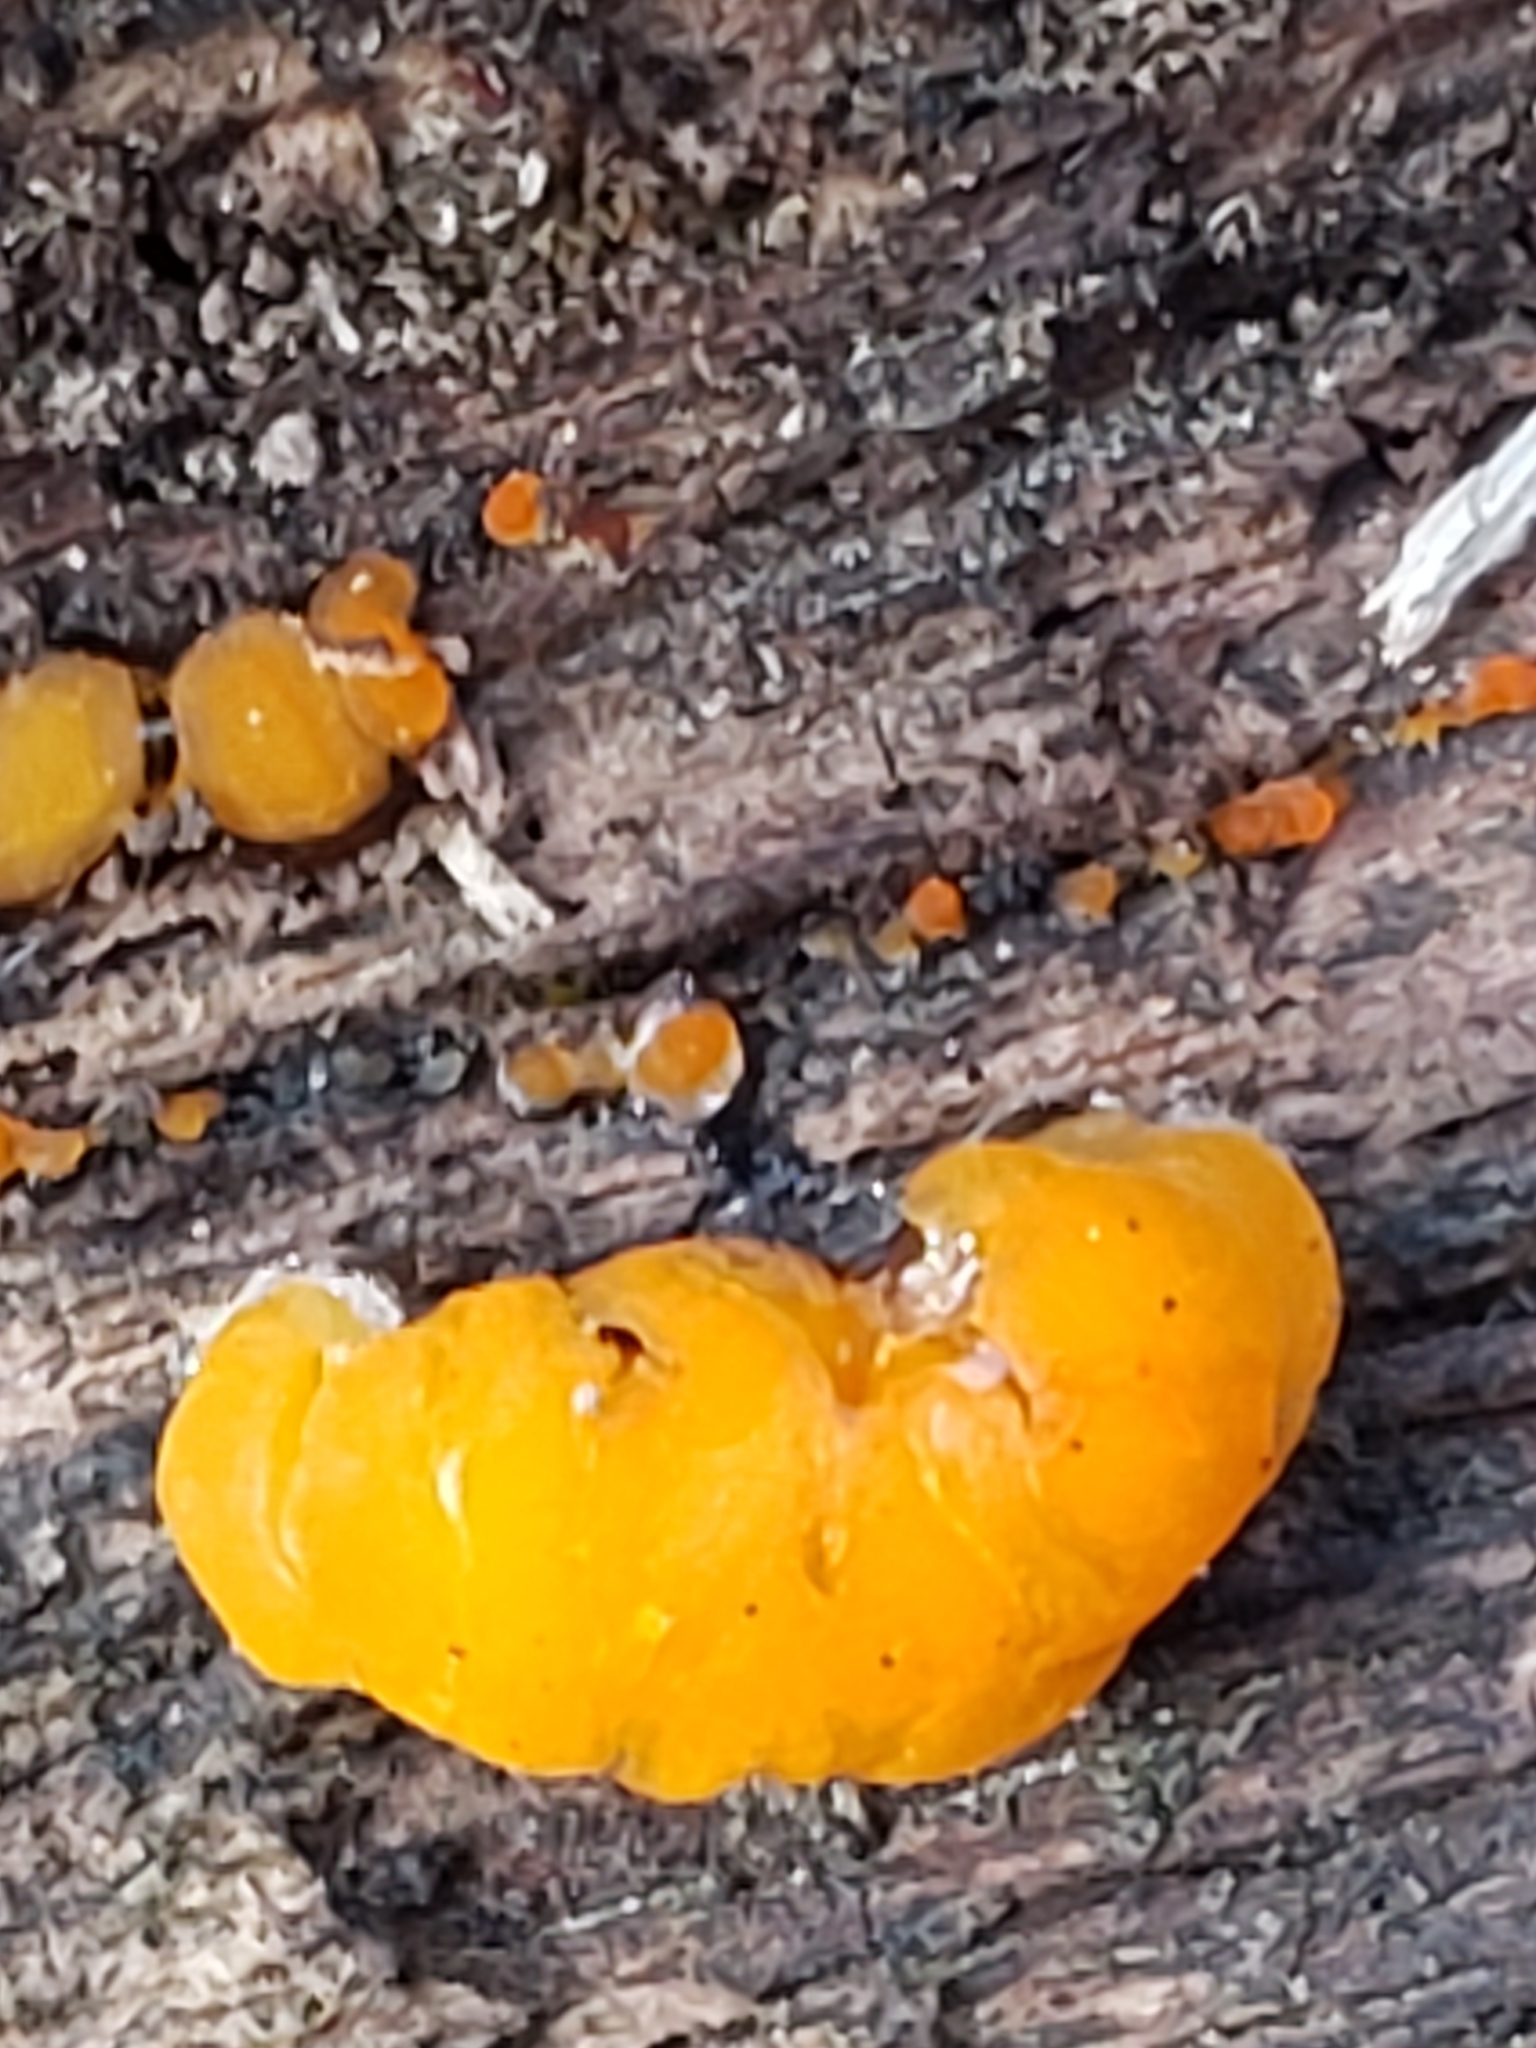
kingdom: Fungi
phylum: Basidiomycota
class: Dacrymycetes
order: Dacrymycetales
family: Dacrymycetaceae
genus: Dacrymyces
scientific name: Dacrymyces chrysospermus
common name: Orange jelly spot
